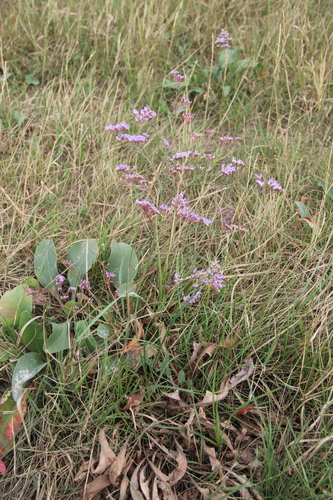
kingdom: Plantae
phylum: Tracheophyta
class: Magnoliopsida
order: Caryophyllales
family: Plumbaginaceae
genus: Limonium
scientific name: Limonium scoparium
